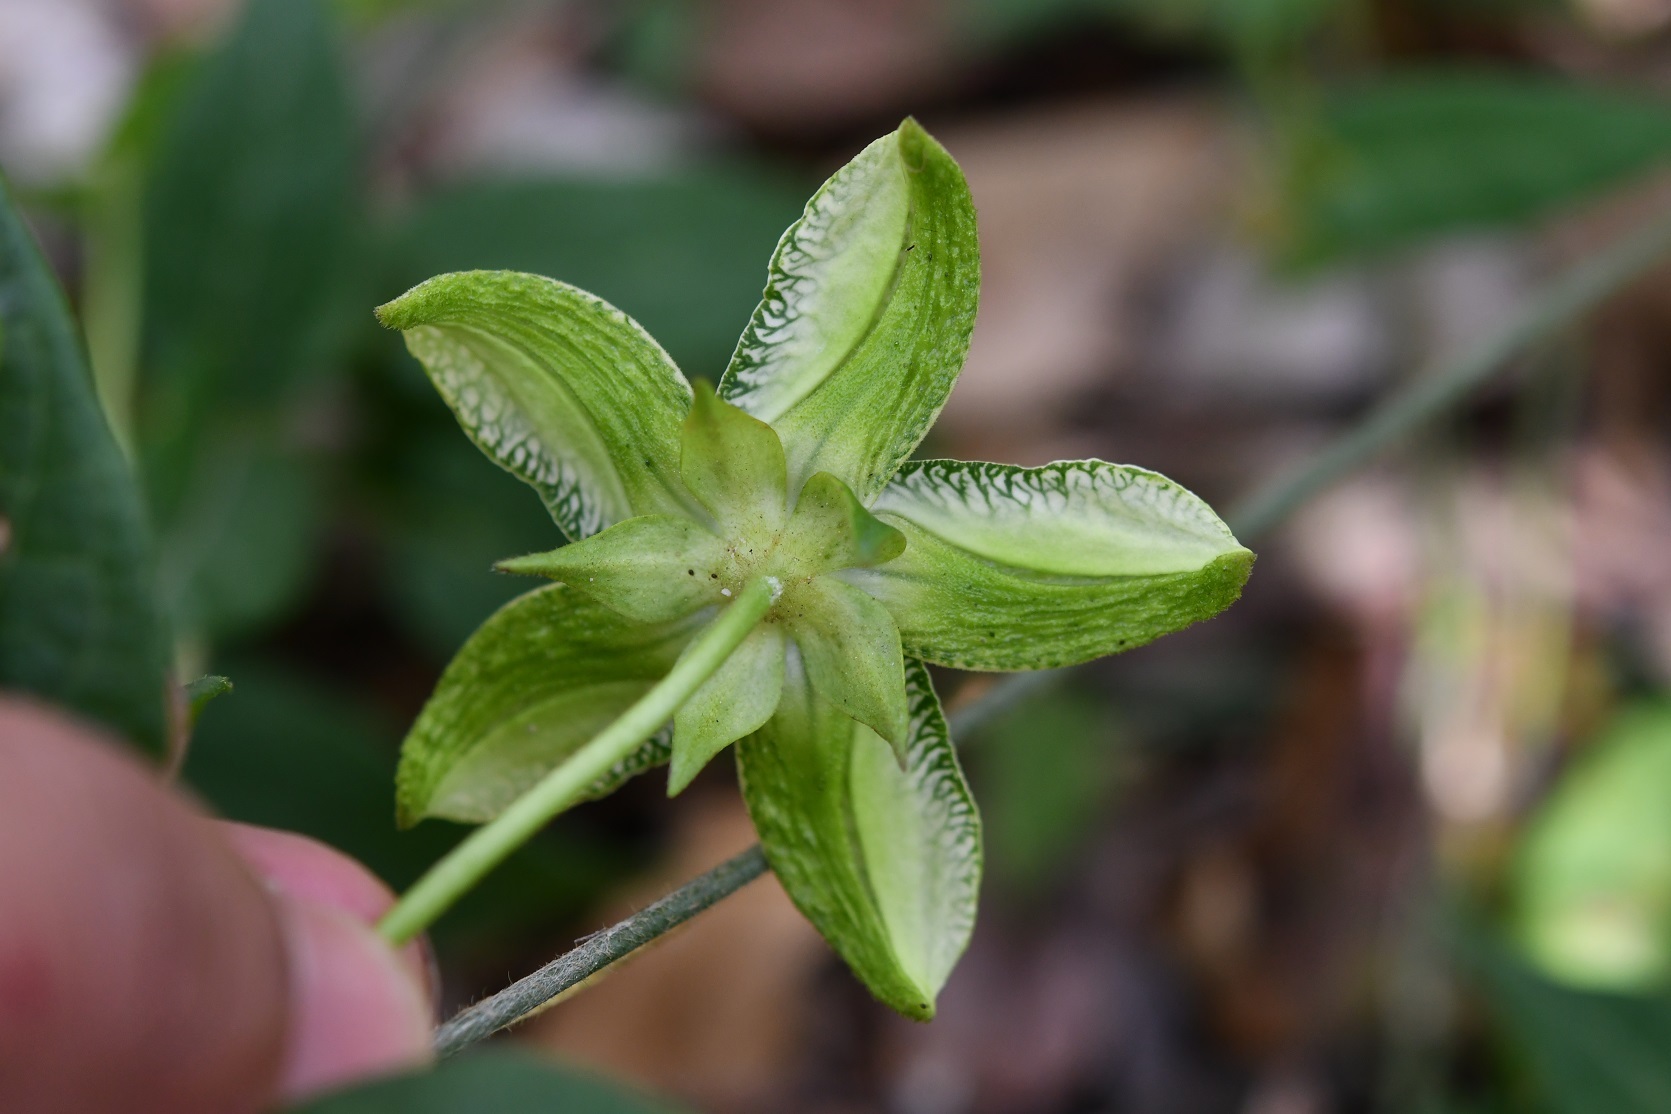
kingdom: Plantae
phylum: Tracheophyta
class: Magnoliopsida
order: Gentianales
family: Apocynaceae
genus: Gonolobus
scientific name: Gonolobus incerianus
